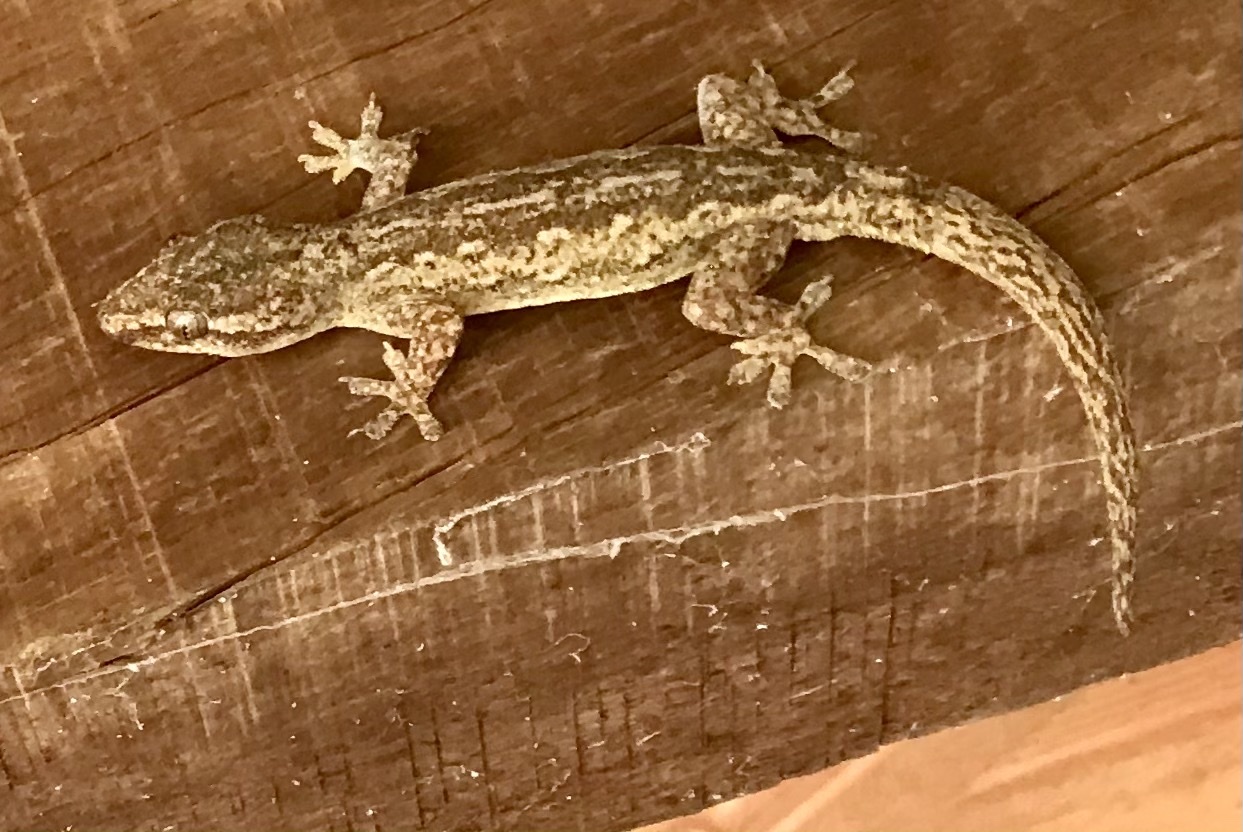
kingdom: Animalia
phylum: Chordata
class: Squamata
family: Gekkonidae
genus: Hemidactylus
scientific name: Hemidactylus frenatus
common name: Common house gecko
